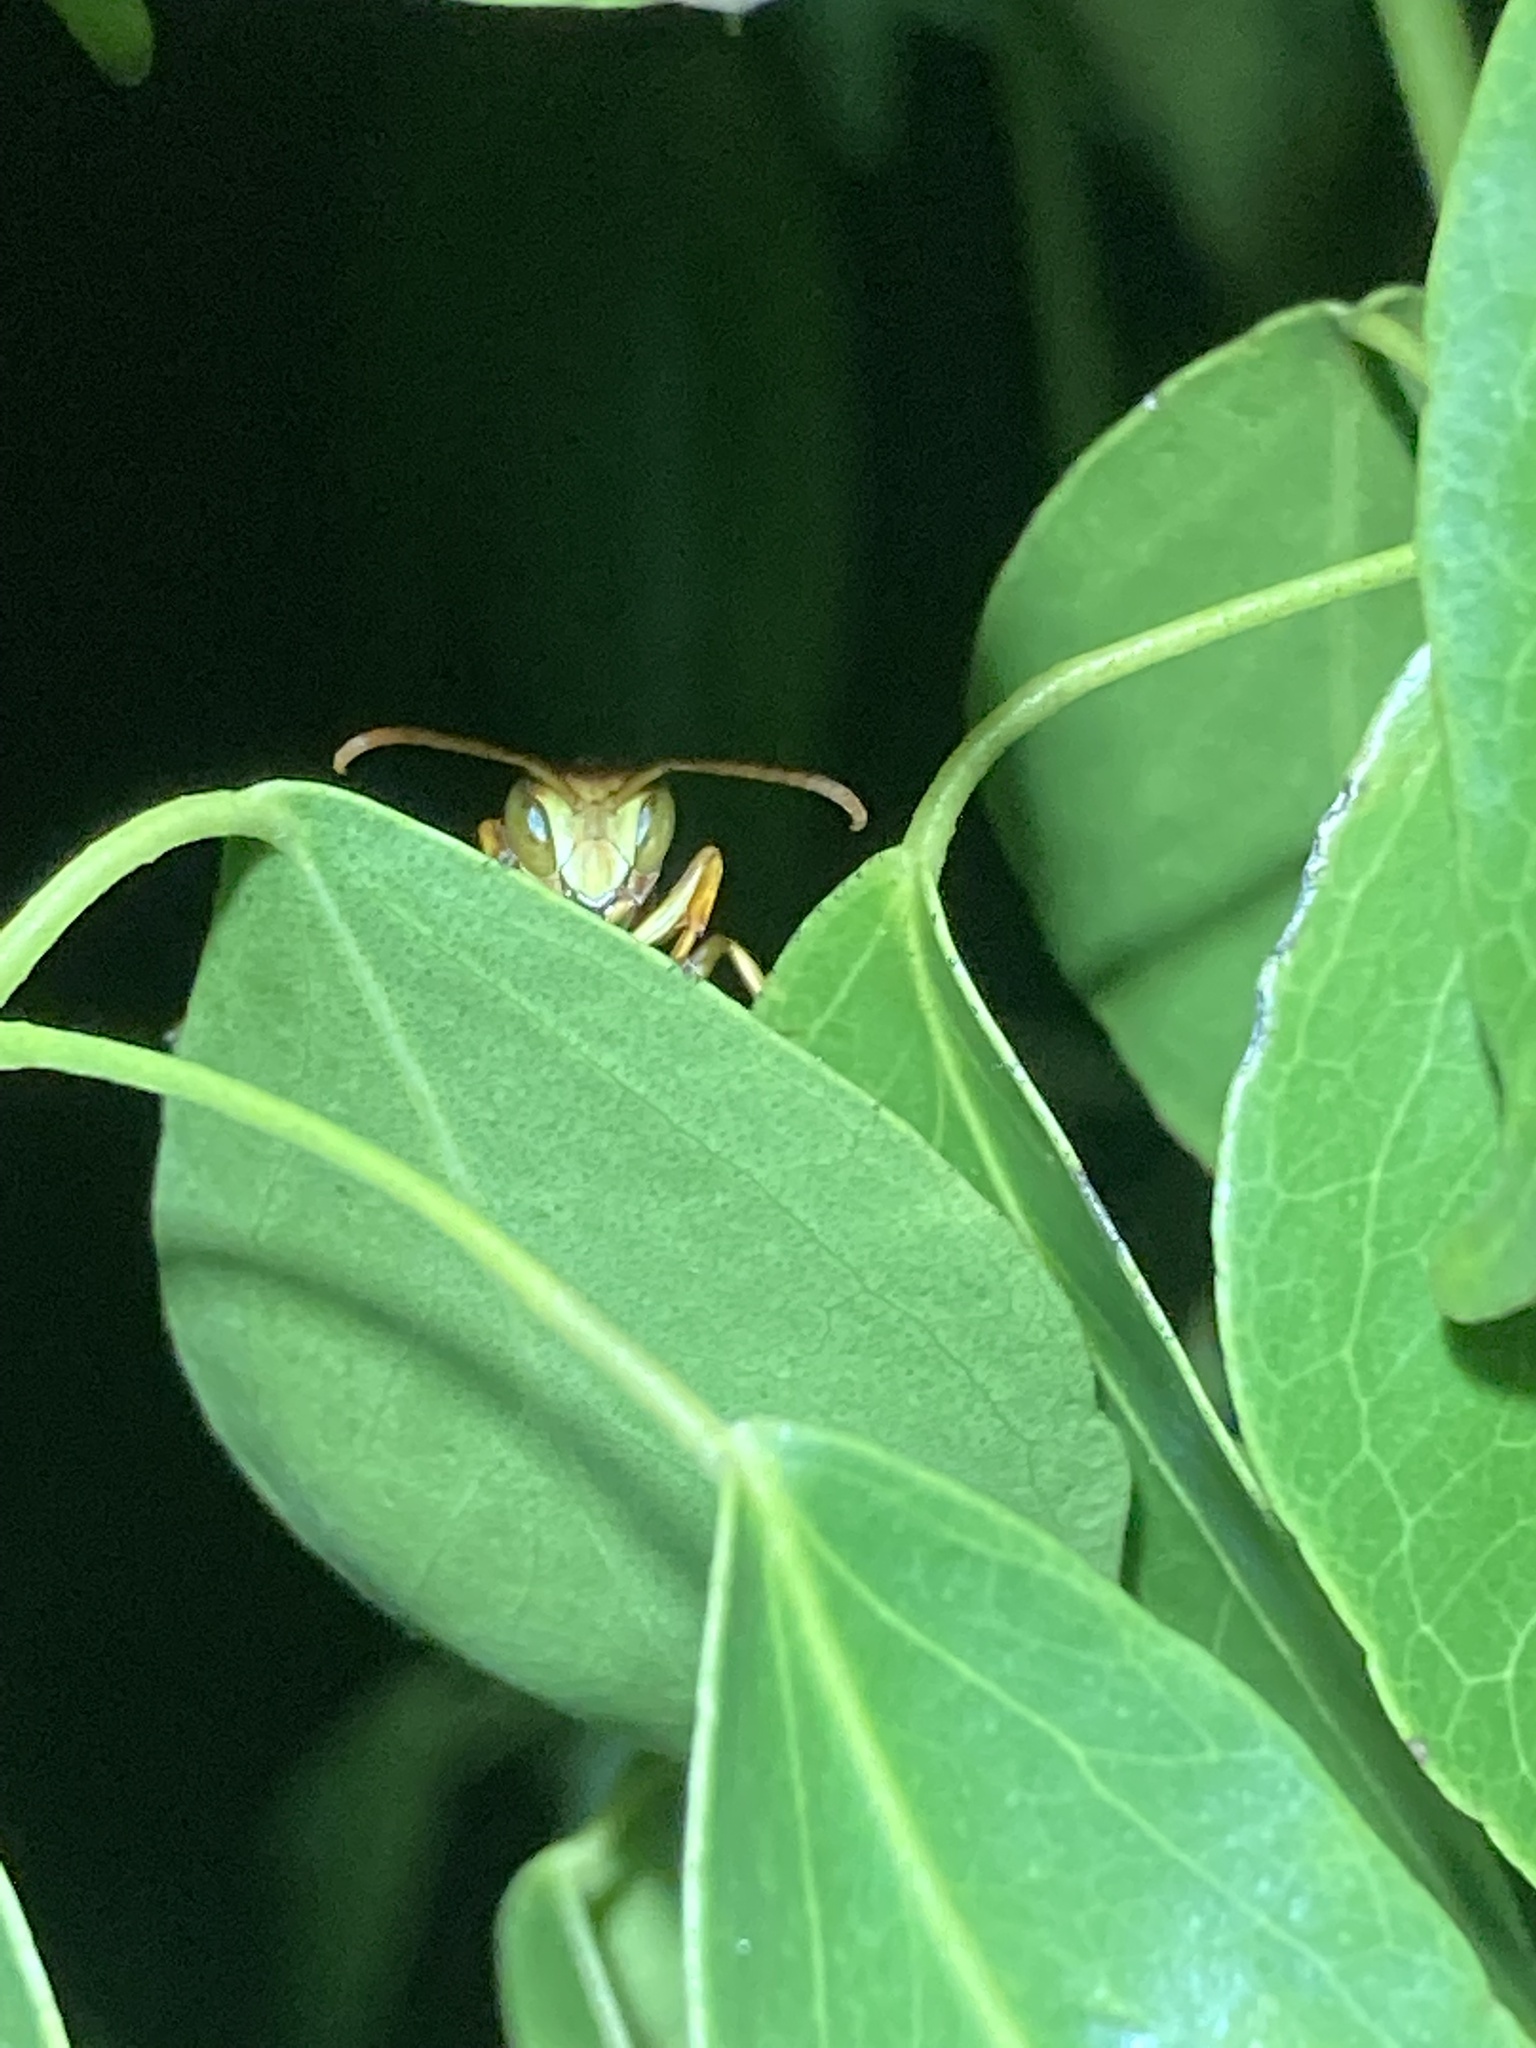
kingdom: Animalia
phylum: Arthropoda
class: Insecta
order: Hymenoptera
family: Eumenidae
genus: Polistes
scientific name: Polistes dorsalis
